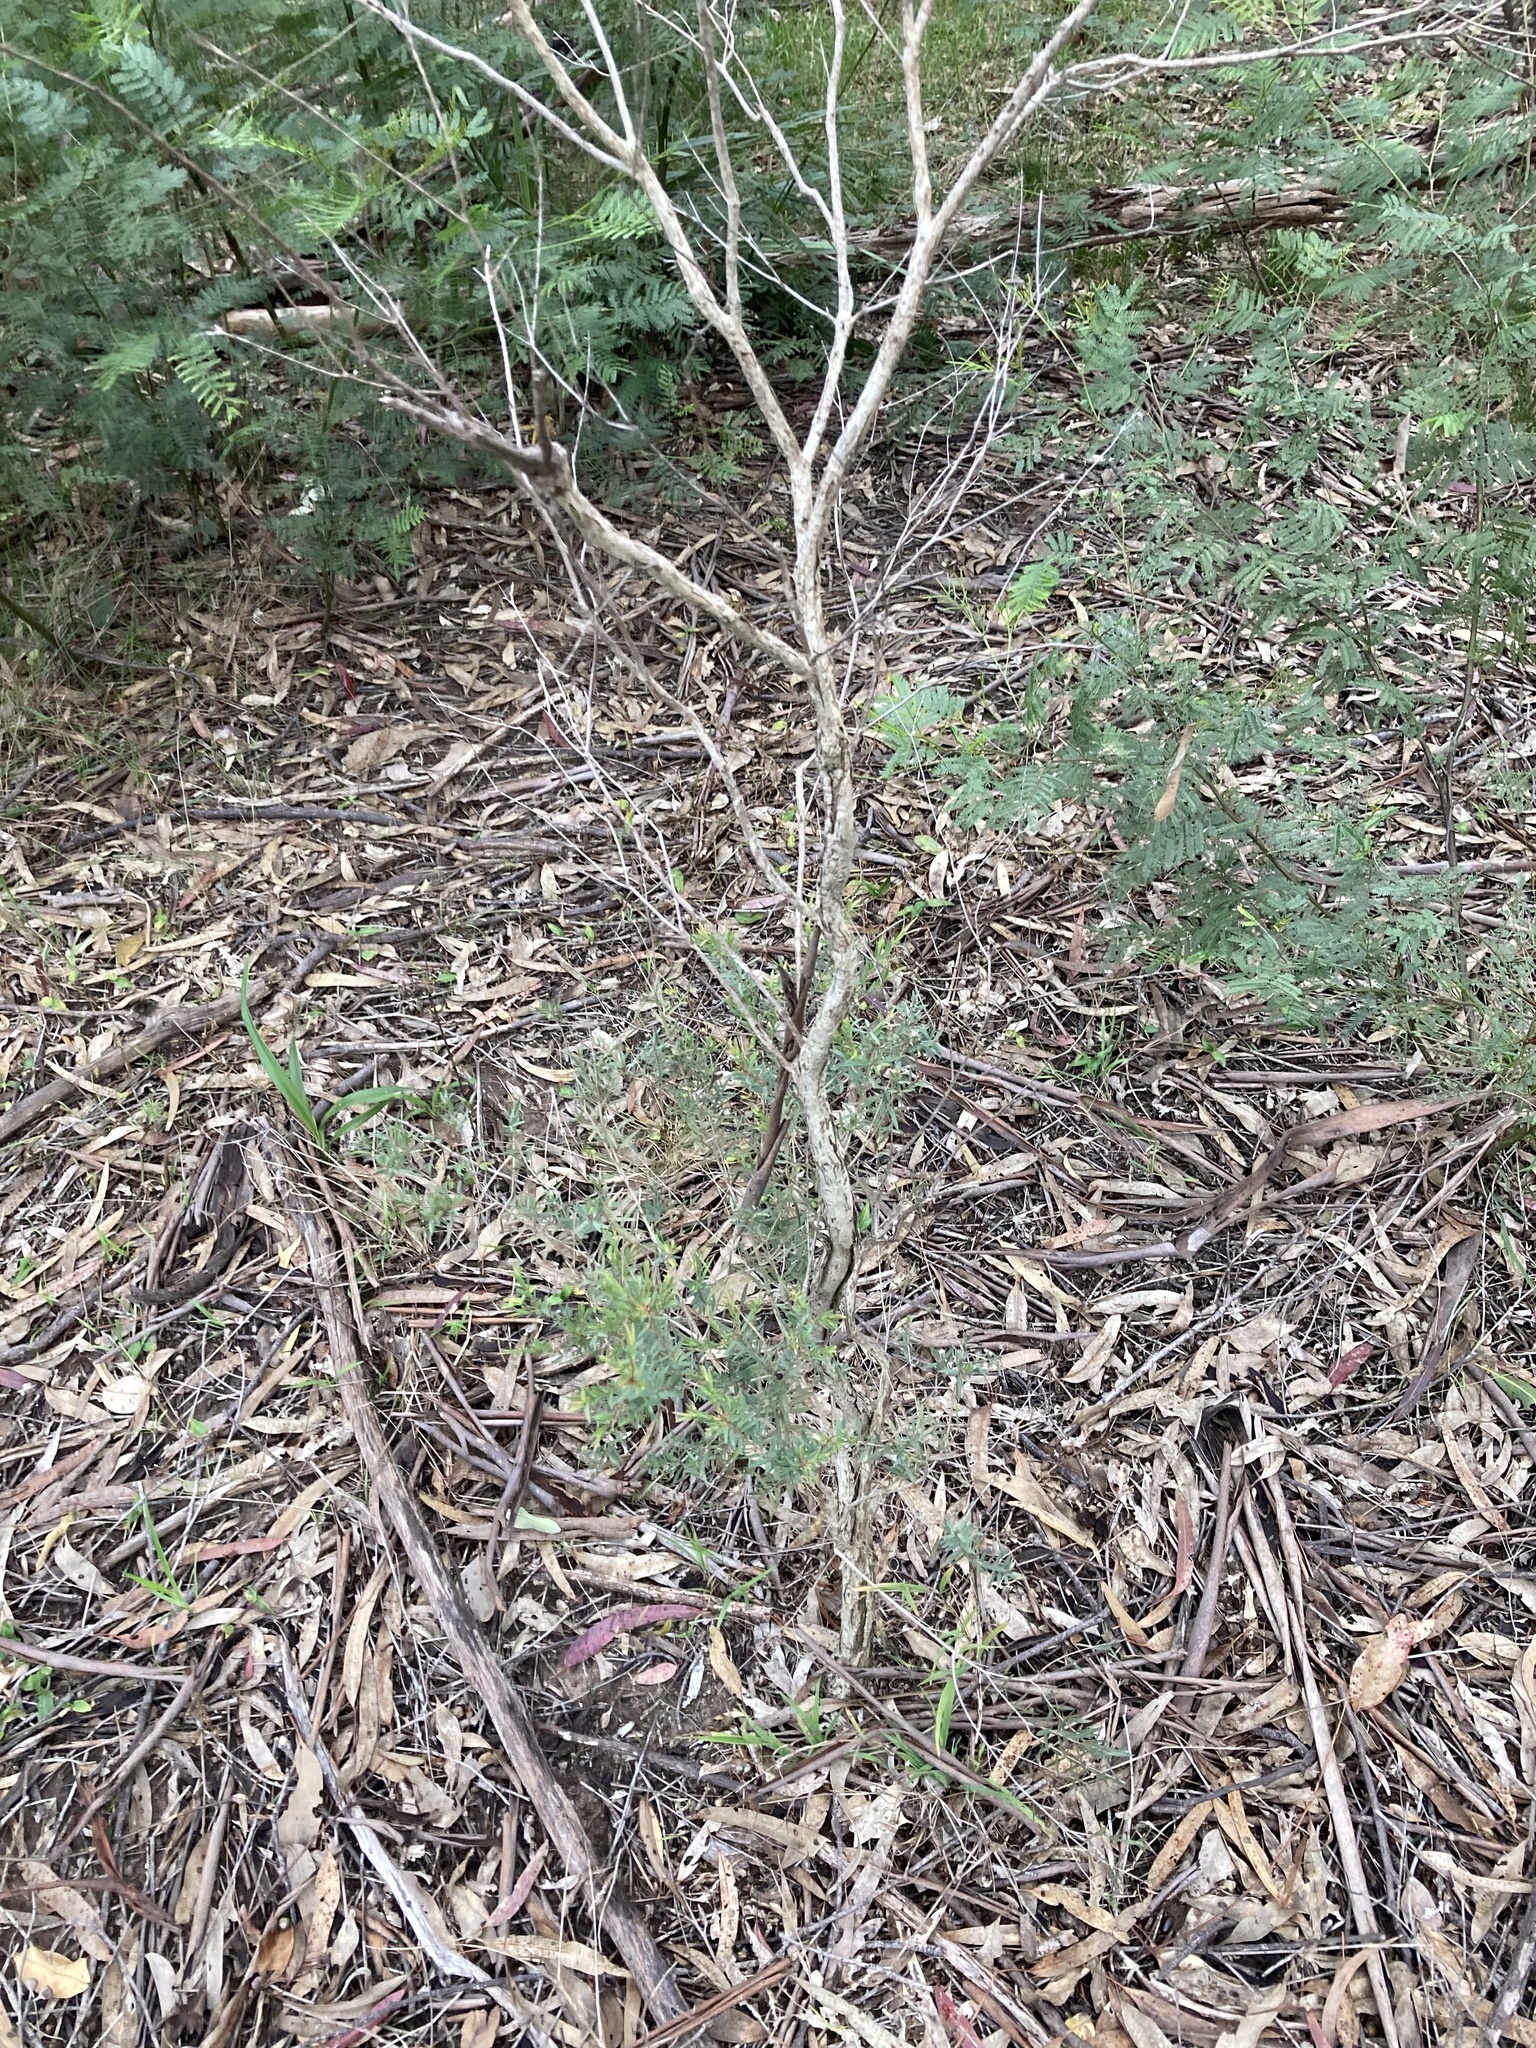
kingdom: Plantae
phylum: Tracheophyta
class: Magnoliopsida
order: Myrtales
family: Myrtaceae
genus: Melaleuca
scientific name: Melaleuca linariifolia
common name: Cajeput tree
